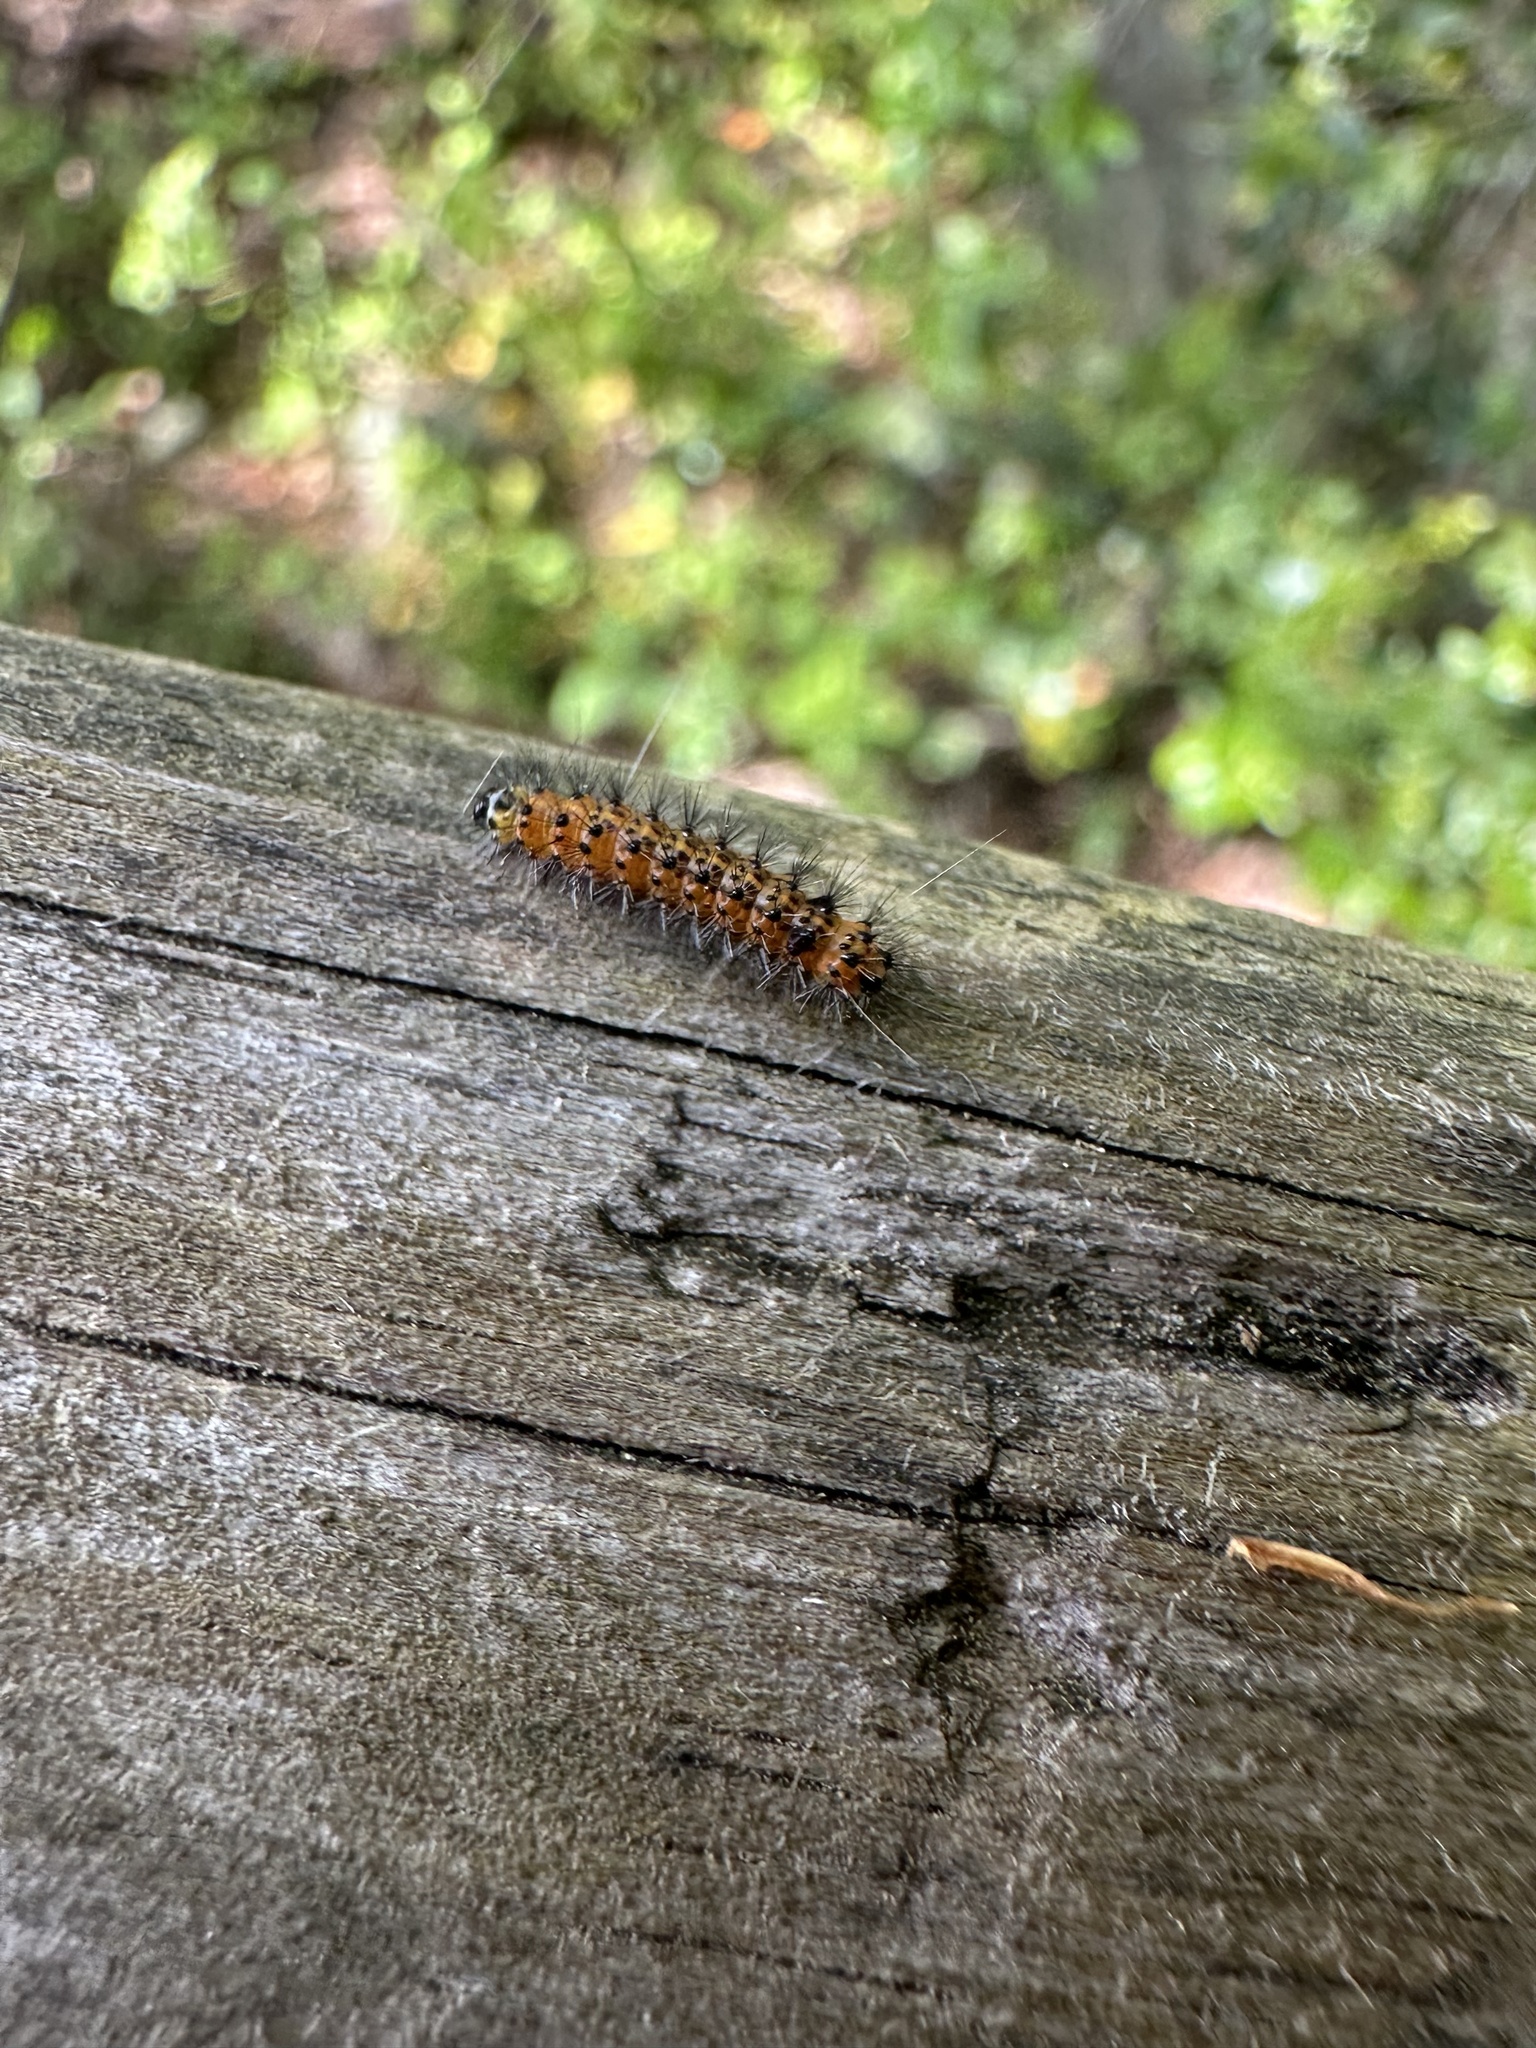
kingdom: Animalia
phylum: Arthropoda
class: Insecta
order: Lepidoptera
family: Erebidae
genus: Spilosoma
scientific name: Spilosoma dubia
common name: Dubious tiger moth
